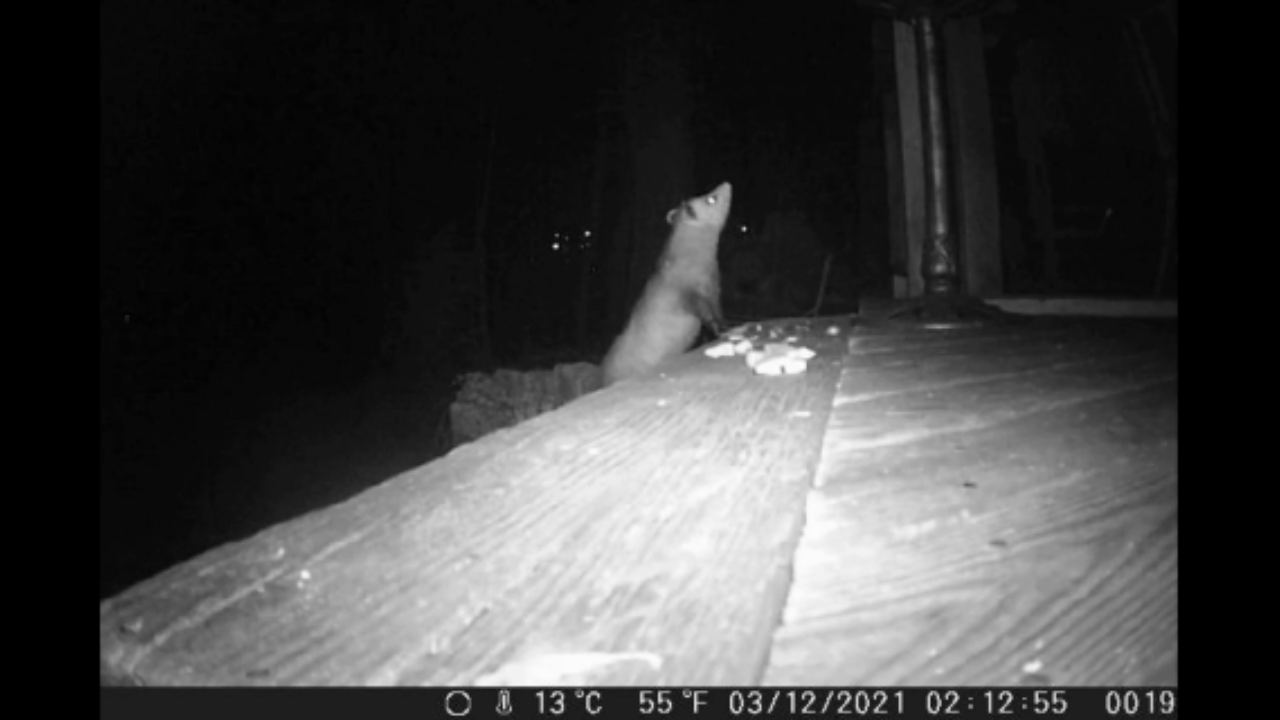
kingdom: Animalia
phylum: Chordata
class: Mammalia
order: Didelphimorphia
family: Didelphidae
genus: Didelphis
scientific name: Didelphis virginiana
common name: Virginia opossum
